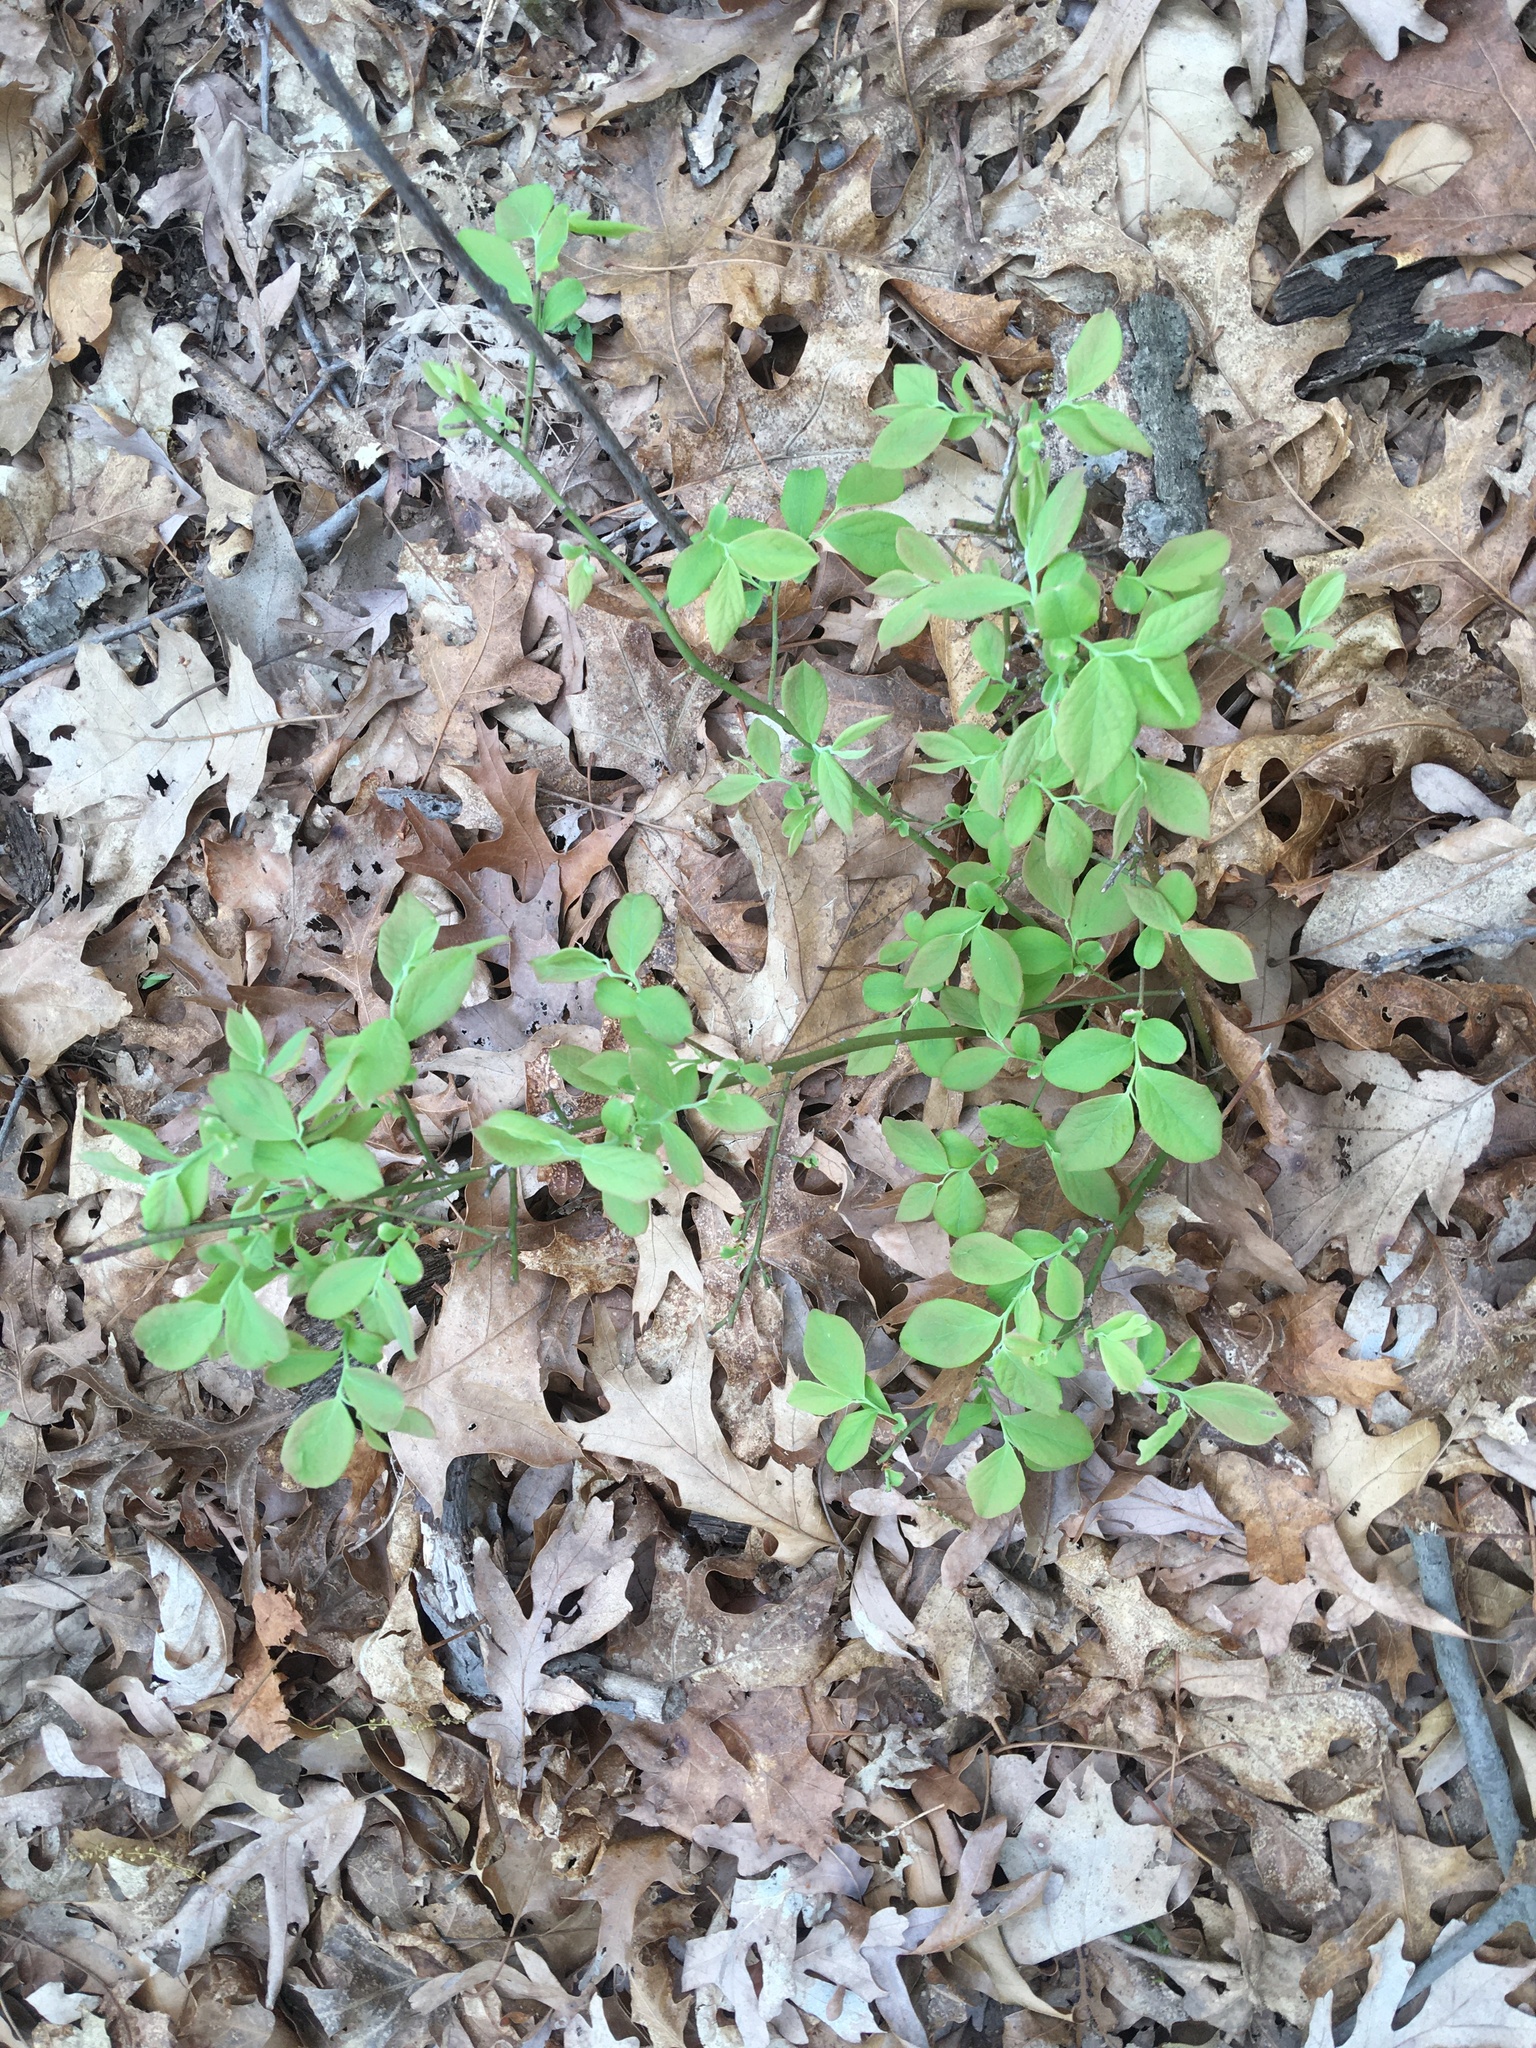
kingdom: Plantae
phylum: Tracheophyta
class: Magnoliopsida
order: Ericales
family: Ericaceae
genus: Vaccinium
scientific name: Vaccinium pallidum
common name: Blue ridge blueberry
